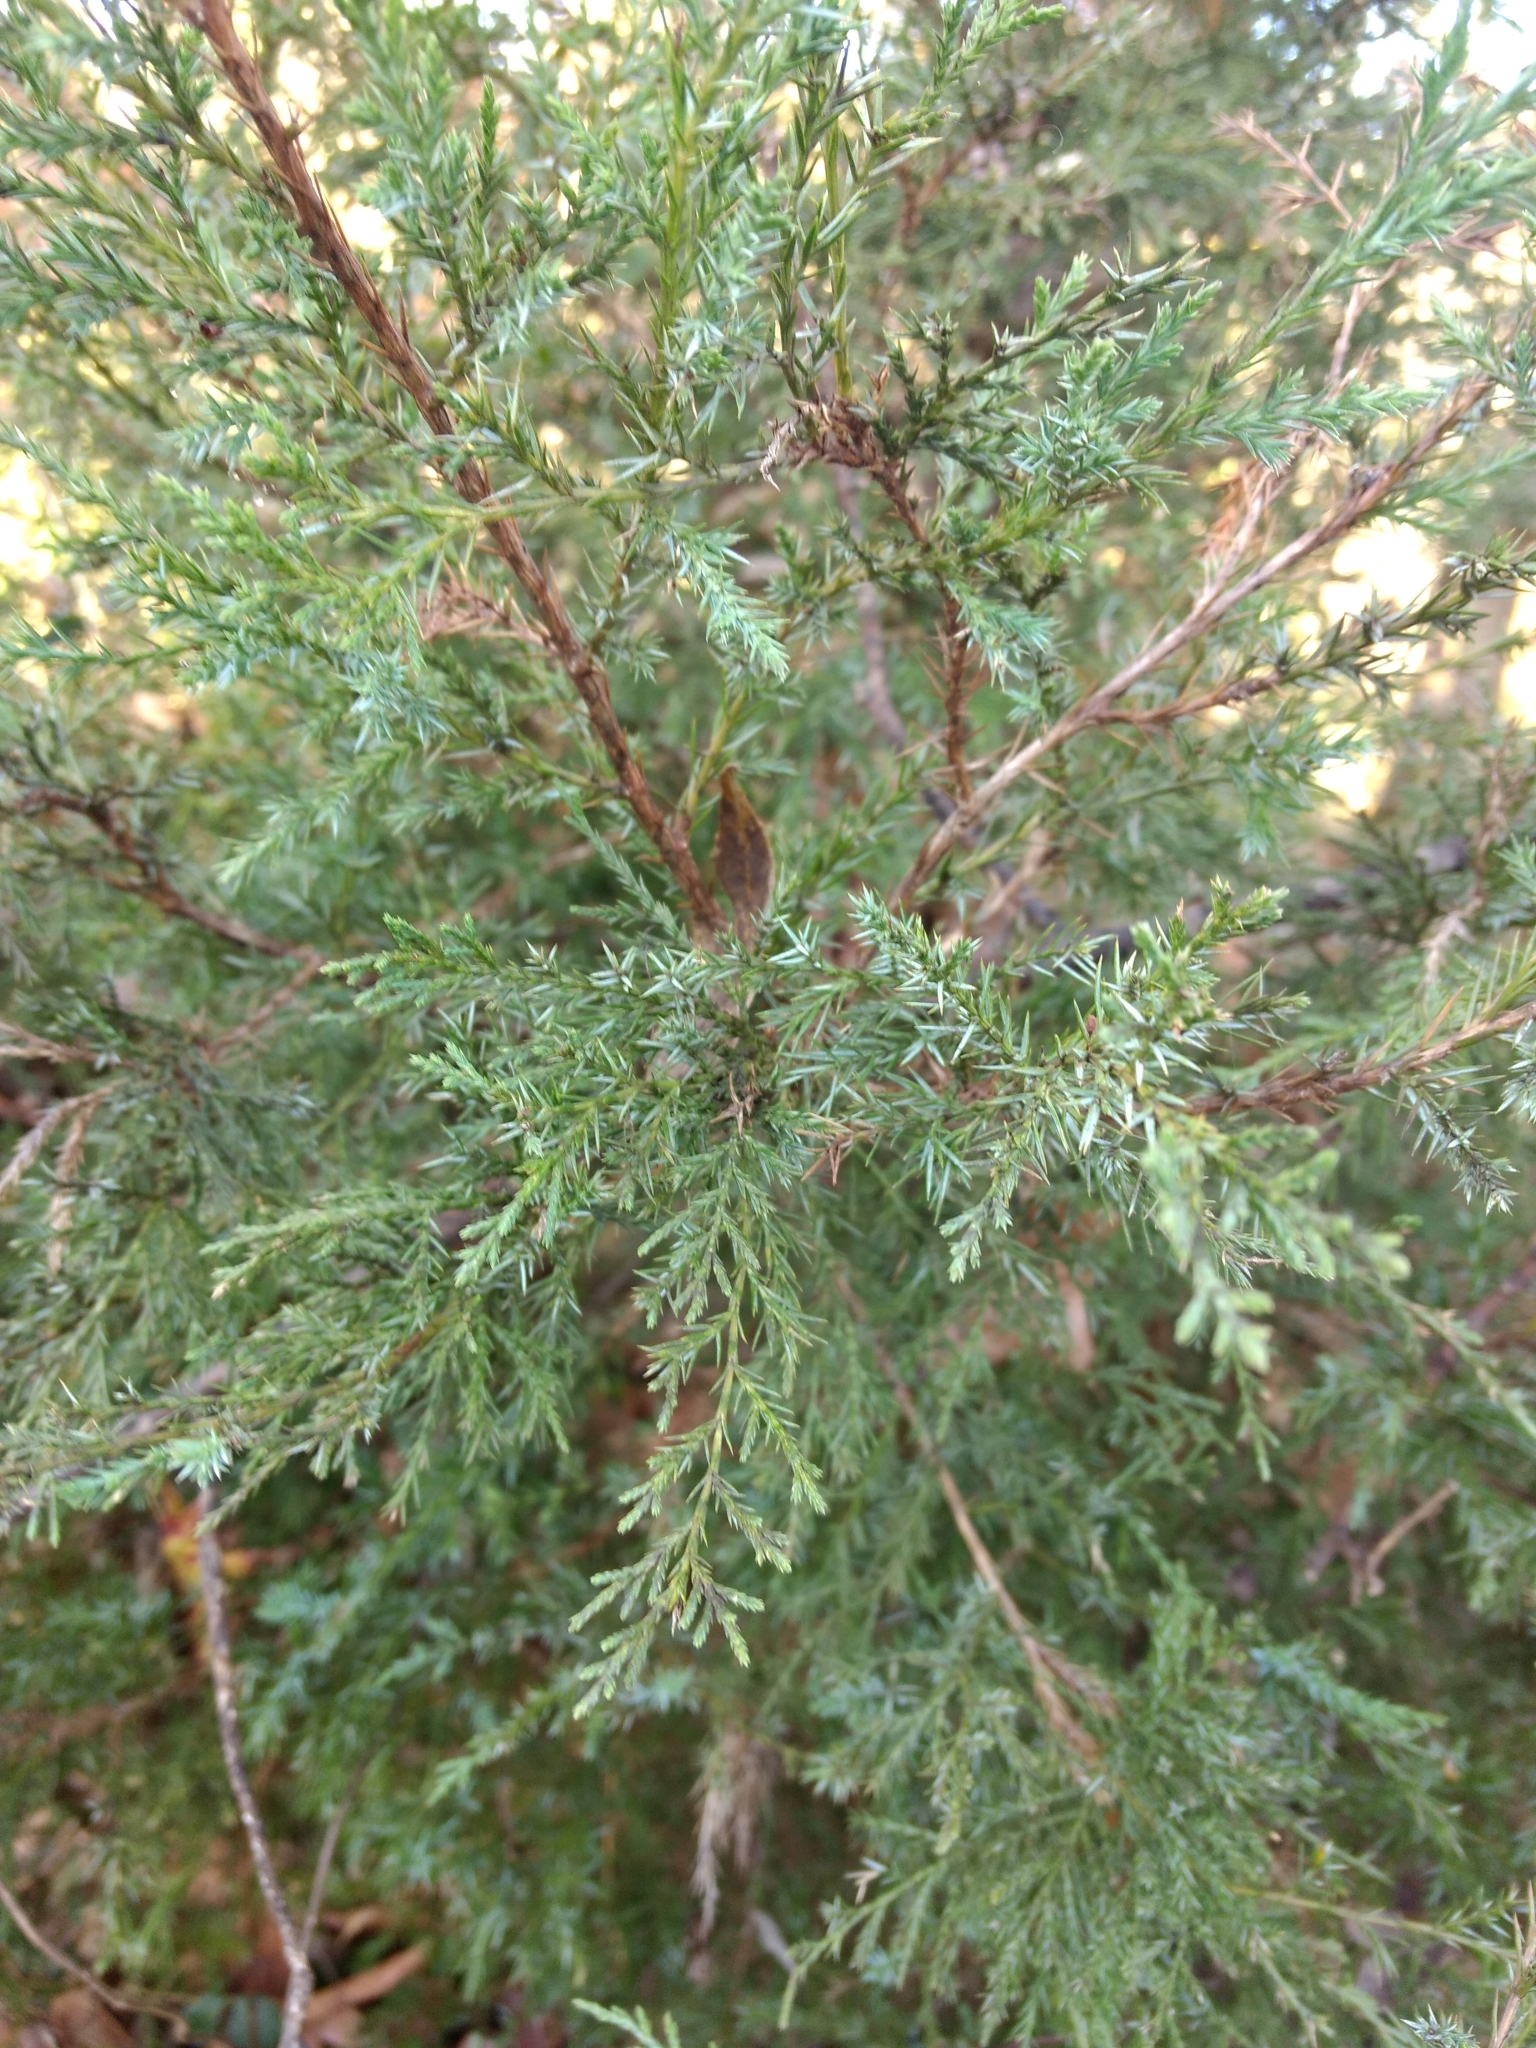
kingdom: Plantae
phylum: Tracheophyta
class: Pinopsida
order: Pinales
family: Cupressaceae
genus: Juniperus
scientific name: Juniperus virginiana
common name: Red juniper
